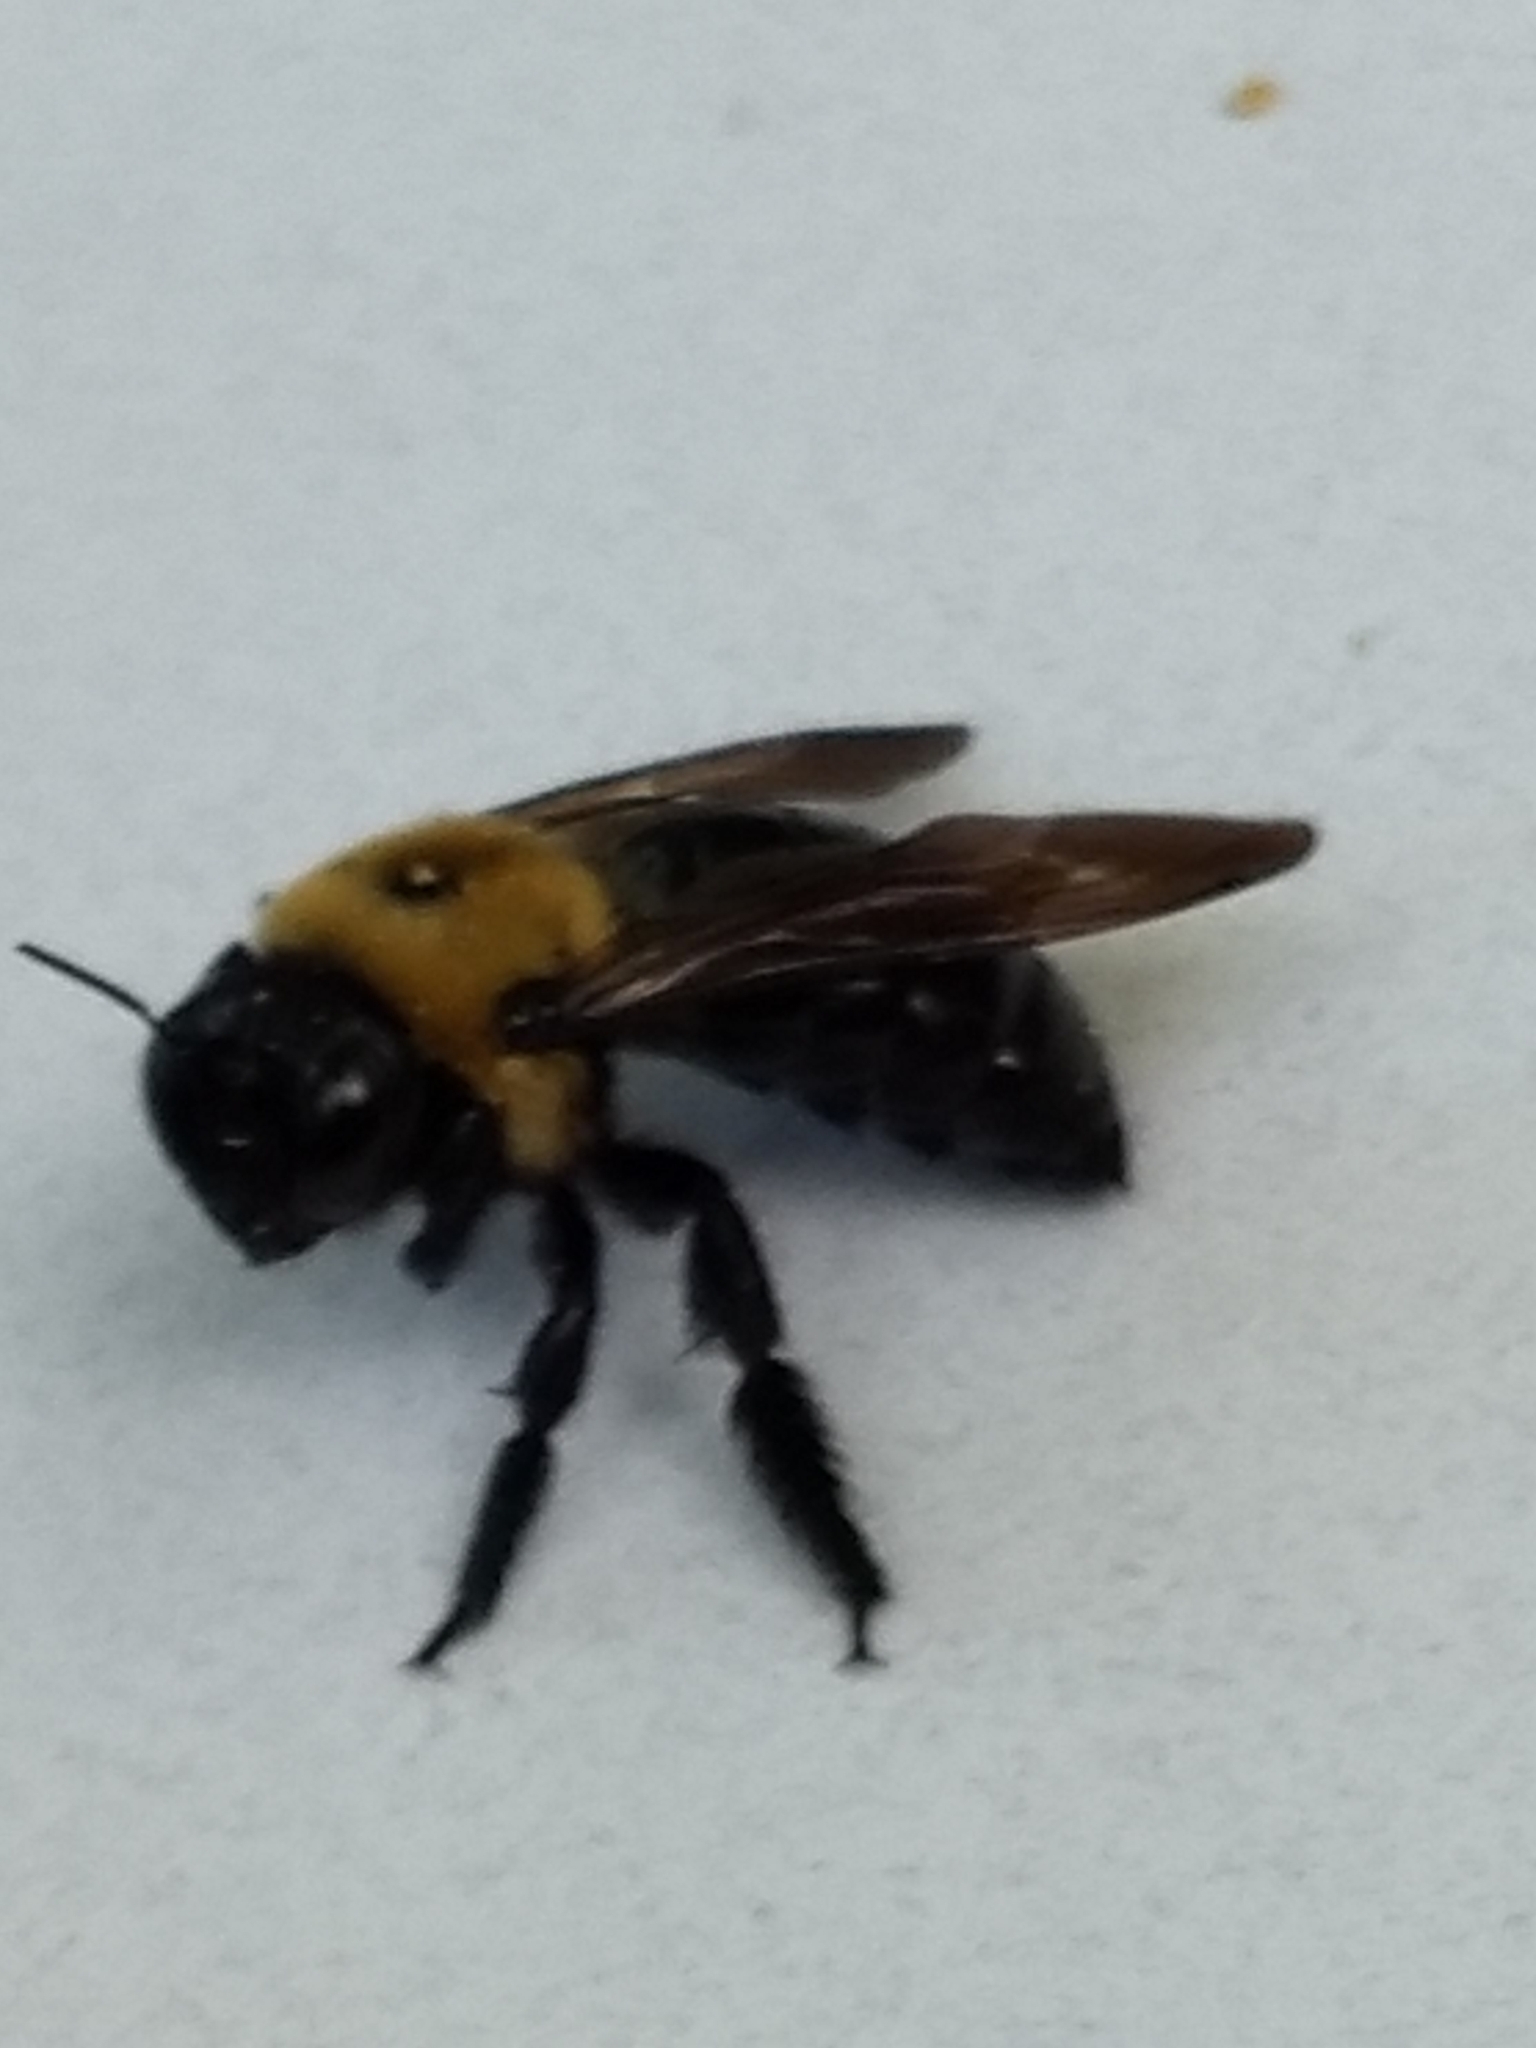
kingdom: Animalia
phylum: Arthropoda
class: Insecta
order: Hymenoptera
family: Apidae
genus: Xylocopa
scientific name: Xylocopa virginica
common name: Carpenter bee
